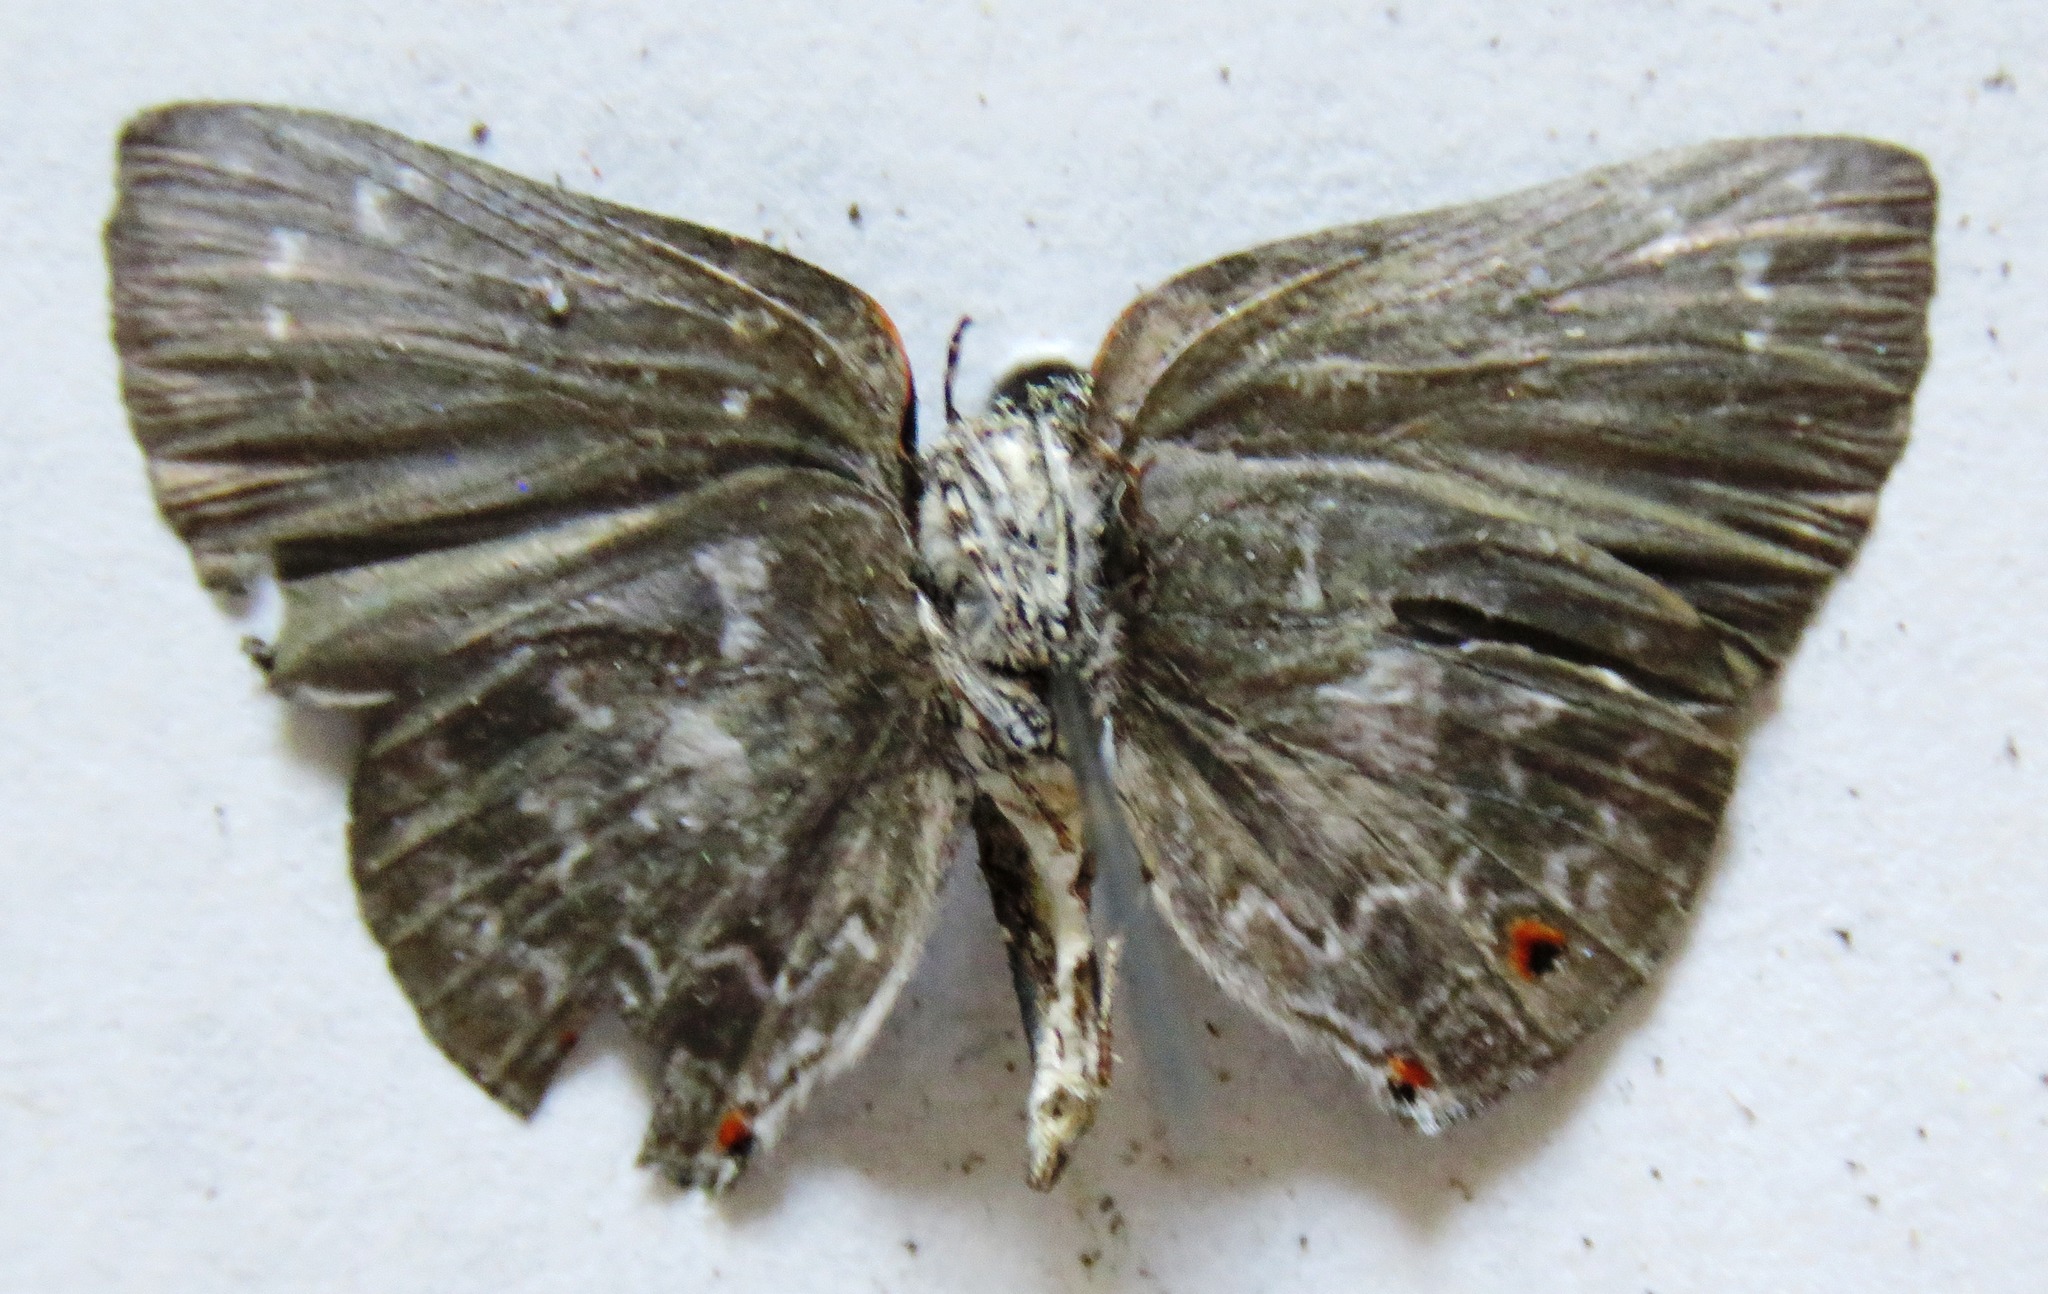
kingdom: Animalia
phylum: Arthropoda
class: Insecta
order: Lepidoptera
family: Lycaenidae
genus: Ignata
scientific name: Ignata
